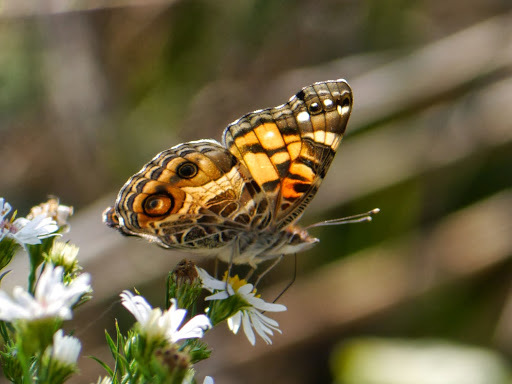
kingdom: Animalia
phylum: Arthropoda
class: Insecta
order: Lepidoptera
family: Nymphalidae
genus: Vanessa
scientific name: Vanessa virginiensis
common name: American lady
